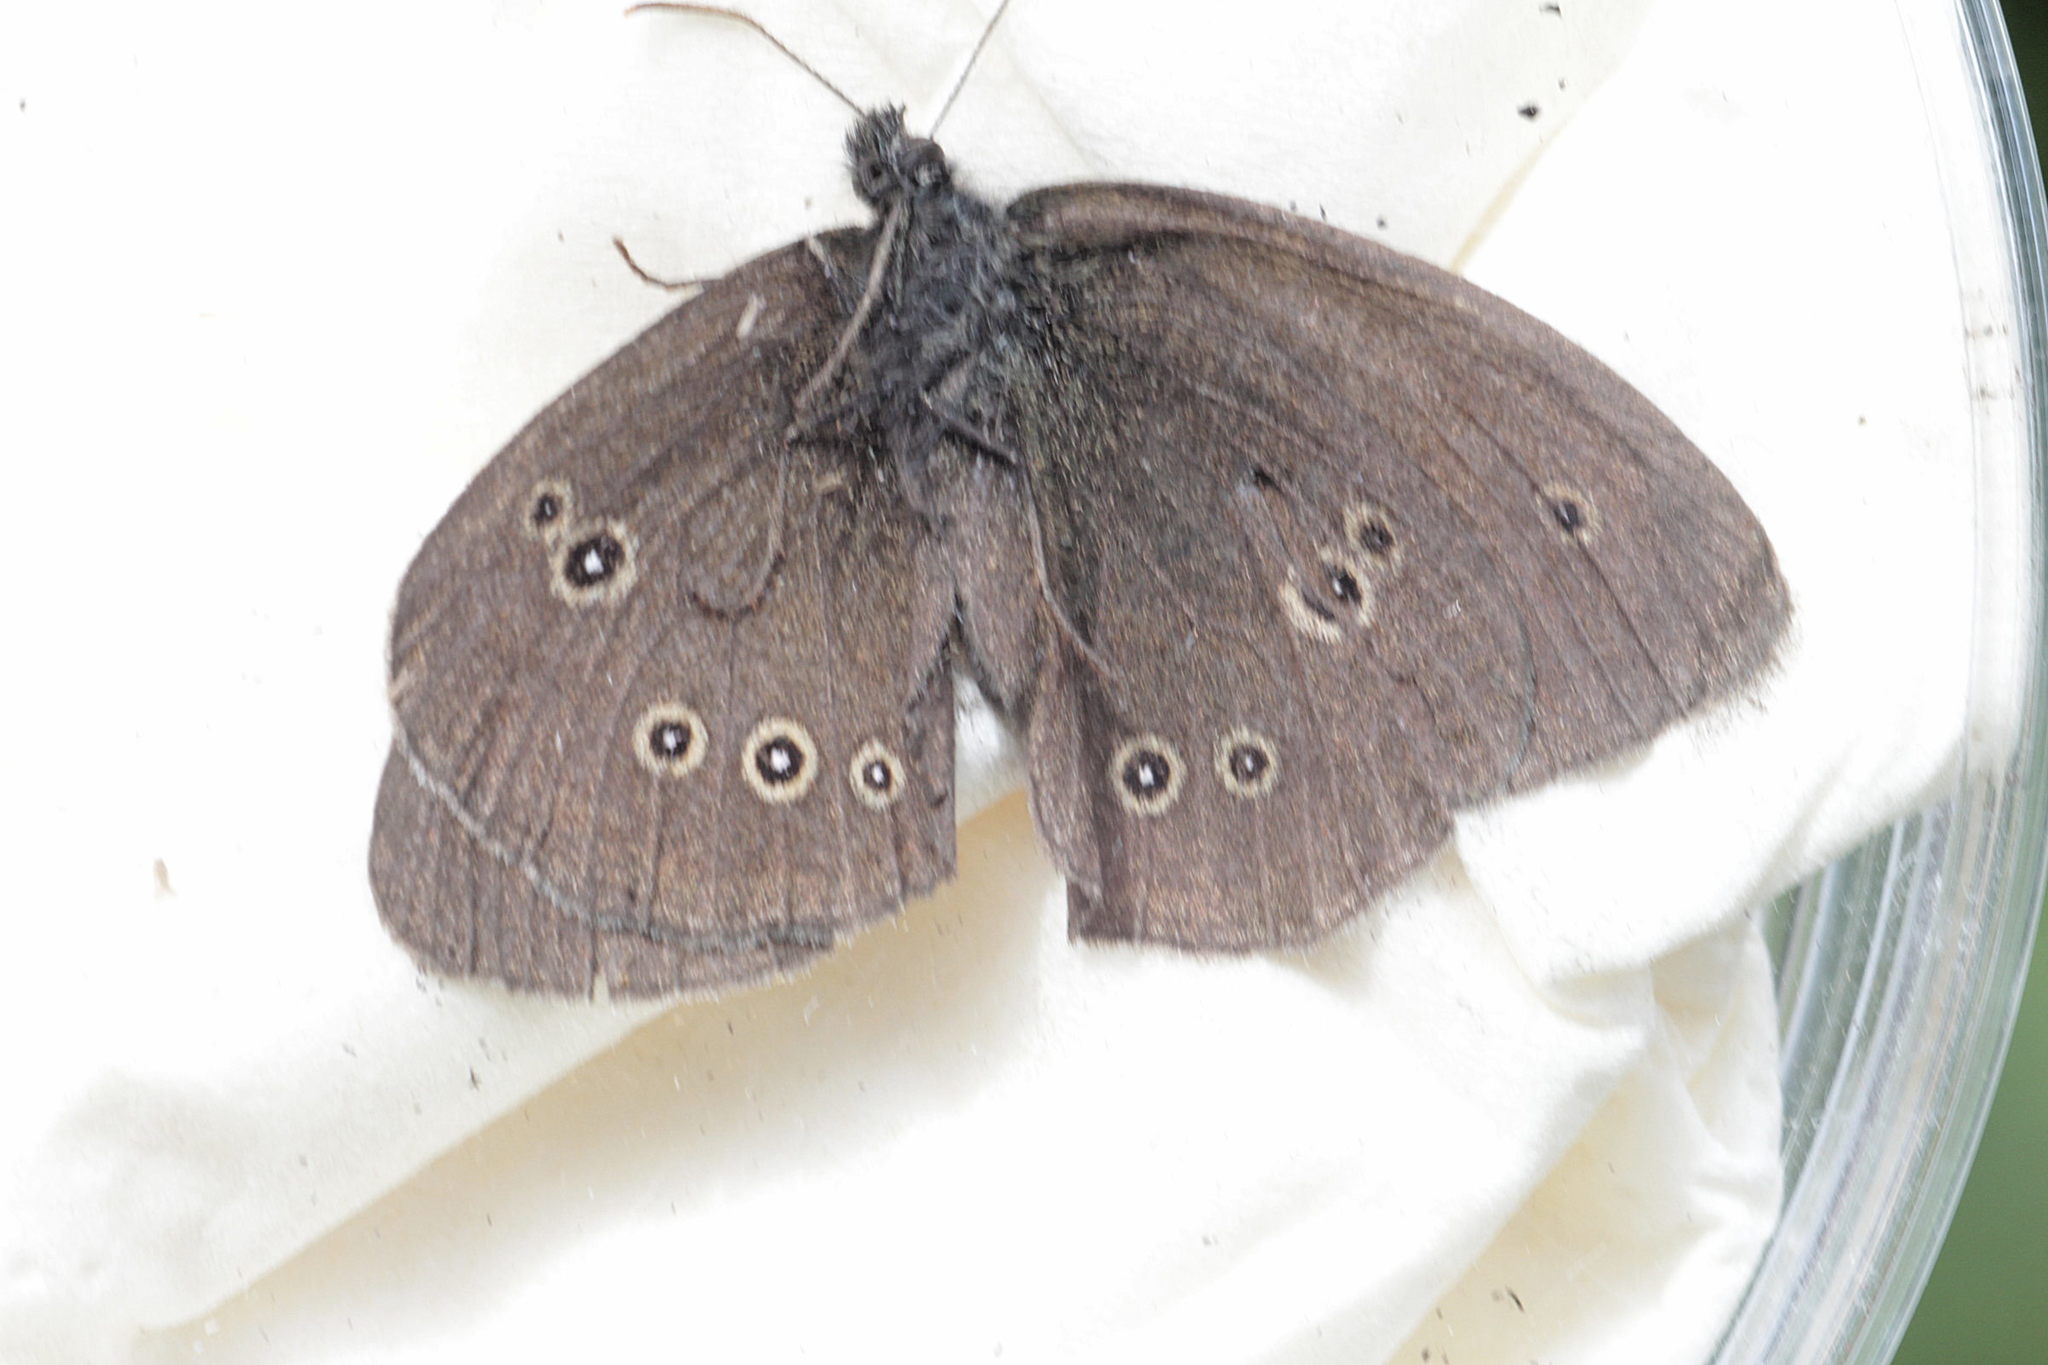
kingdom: Animalia
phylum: Arthropoda
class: Insecta
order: Lepidoptera
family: Nymphalidae
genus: Aphantopus
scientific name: Aphantopus hyperantus
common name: Ringlet
